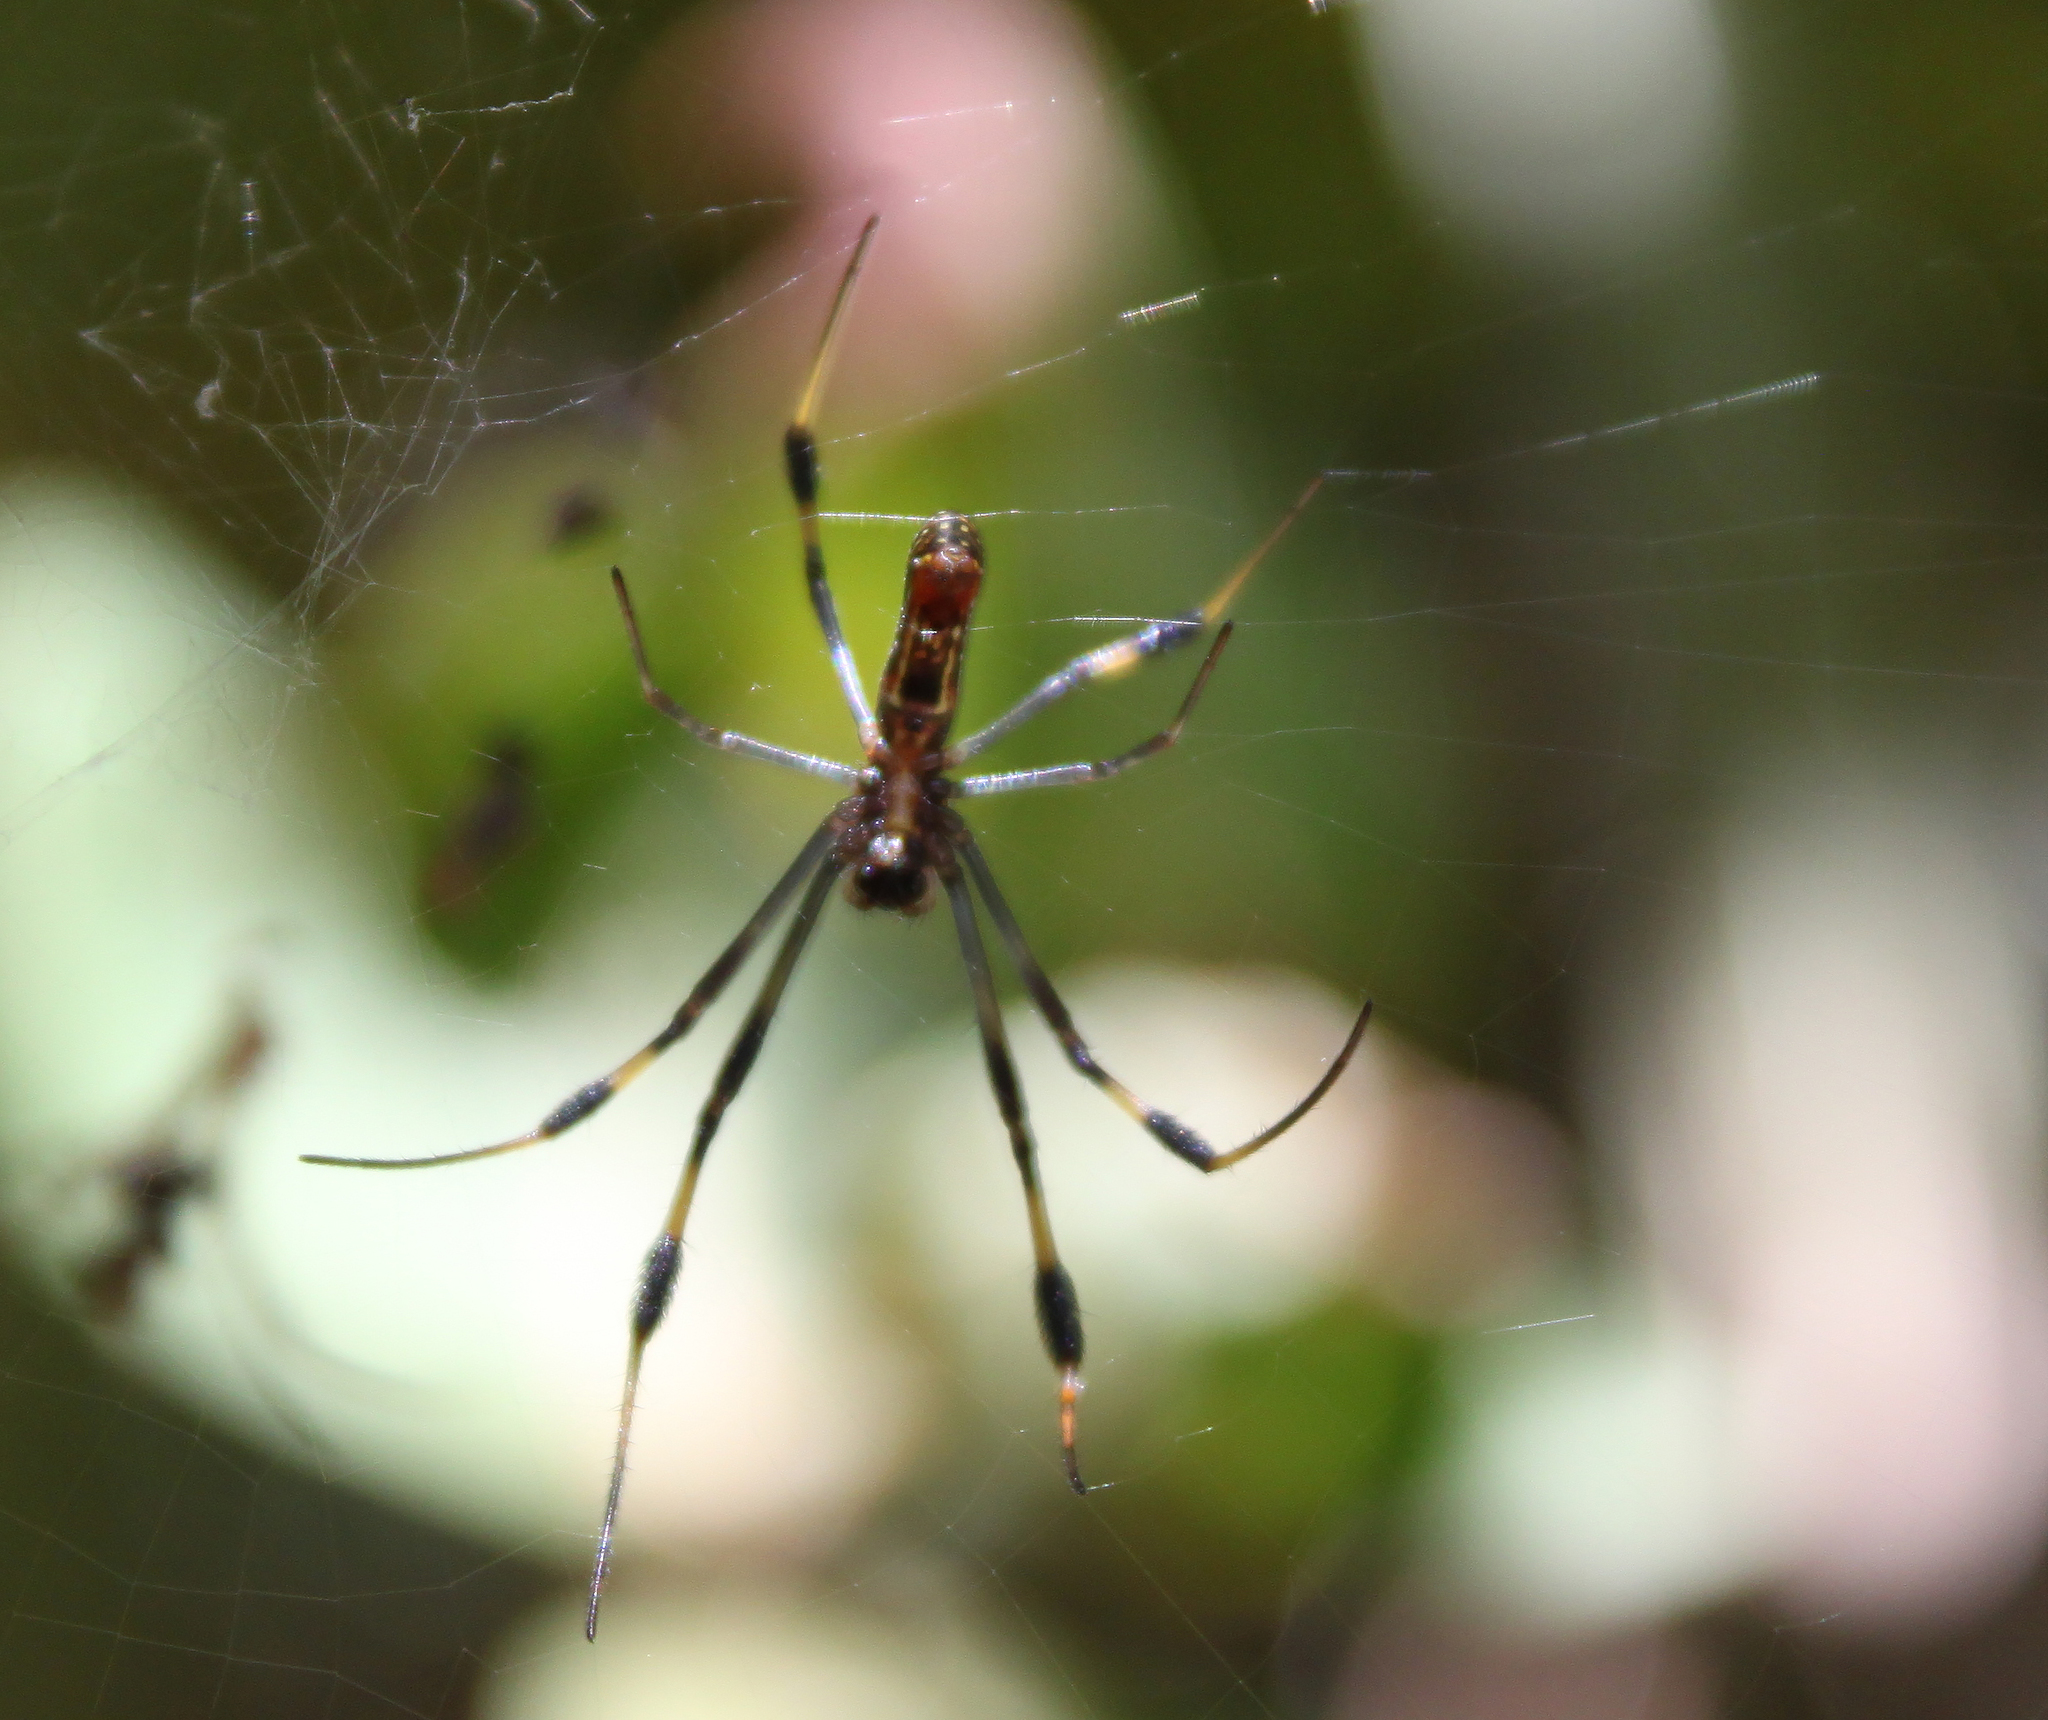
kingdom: Animalia
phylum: Arthropoda
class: Arachnida
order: Araneae
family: Araneidae
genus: Trichonephila
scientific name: Trichonephila clavipes
